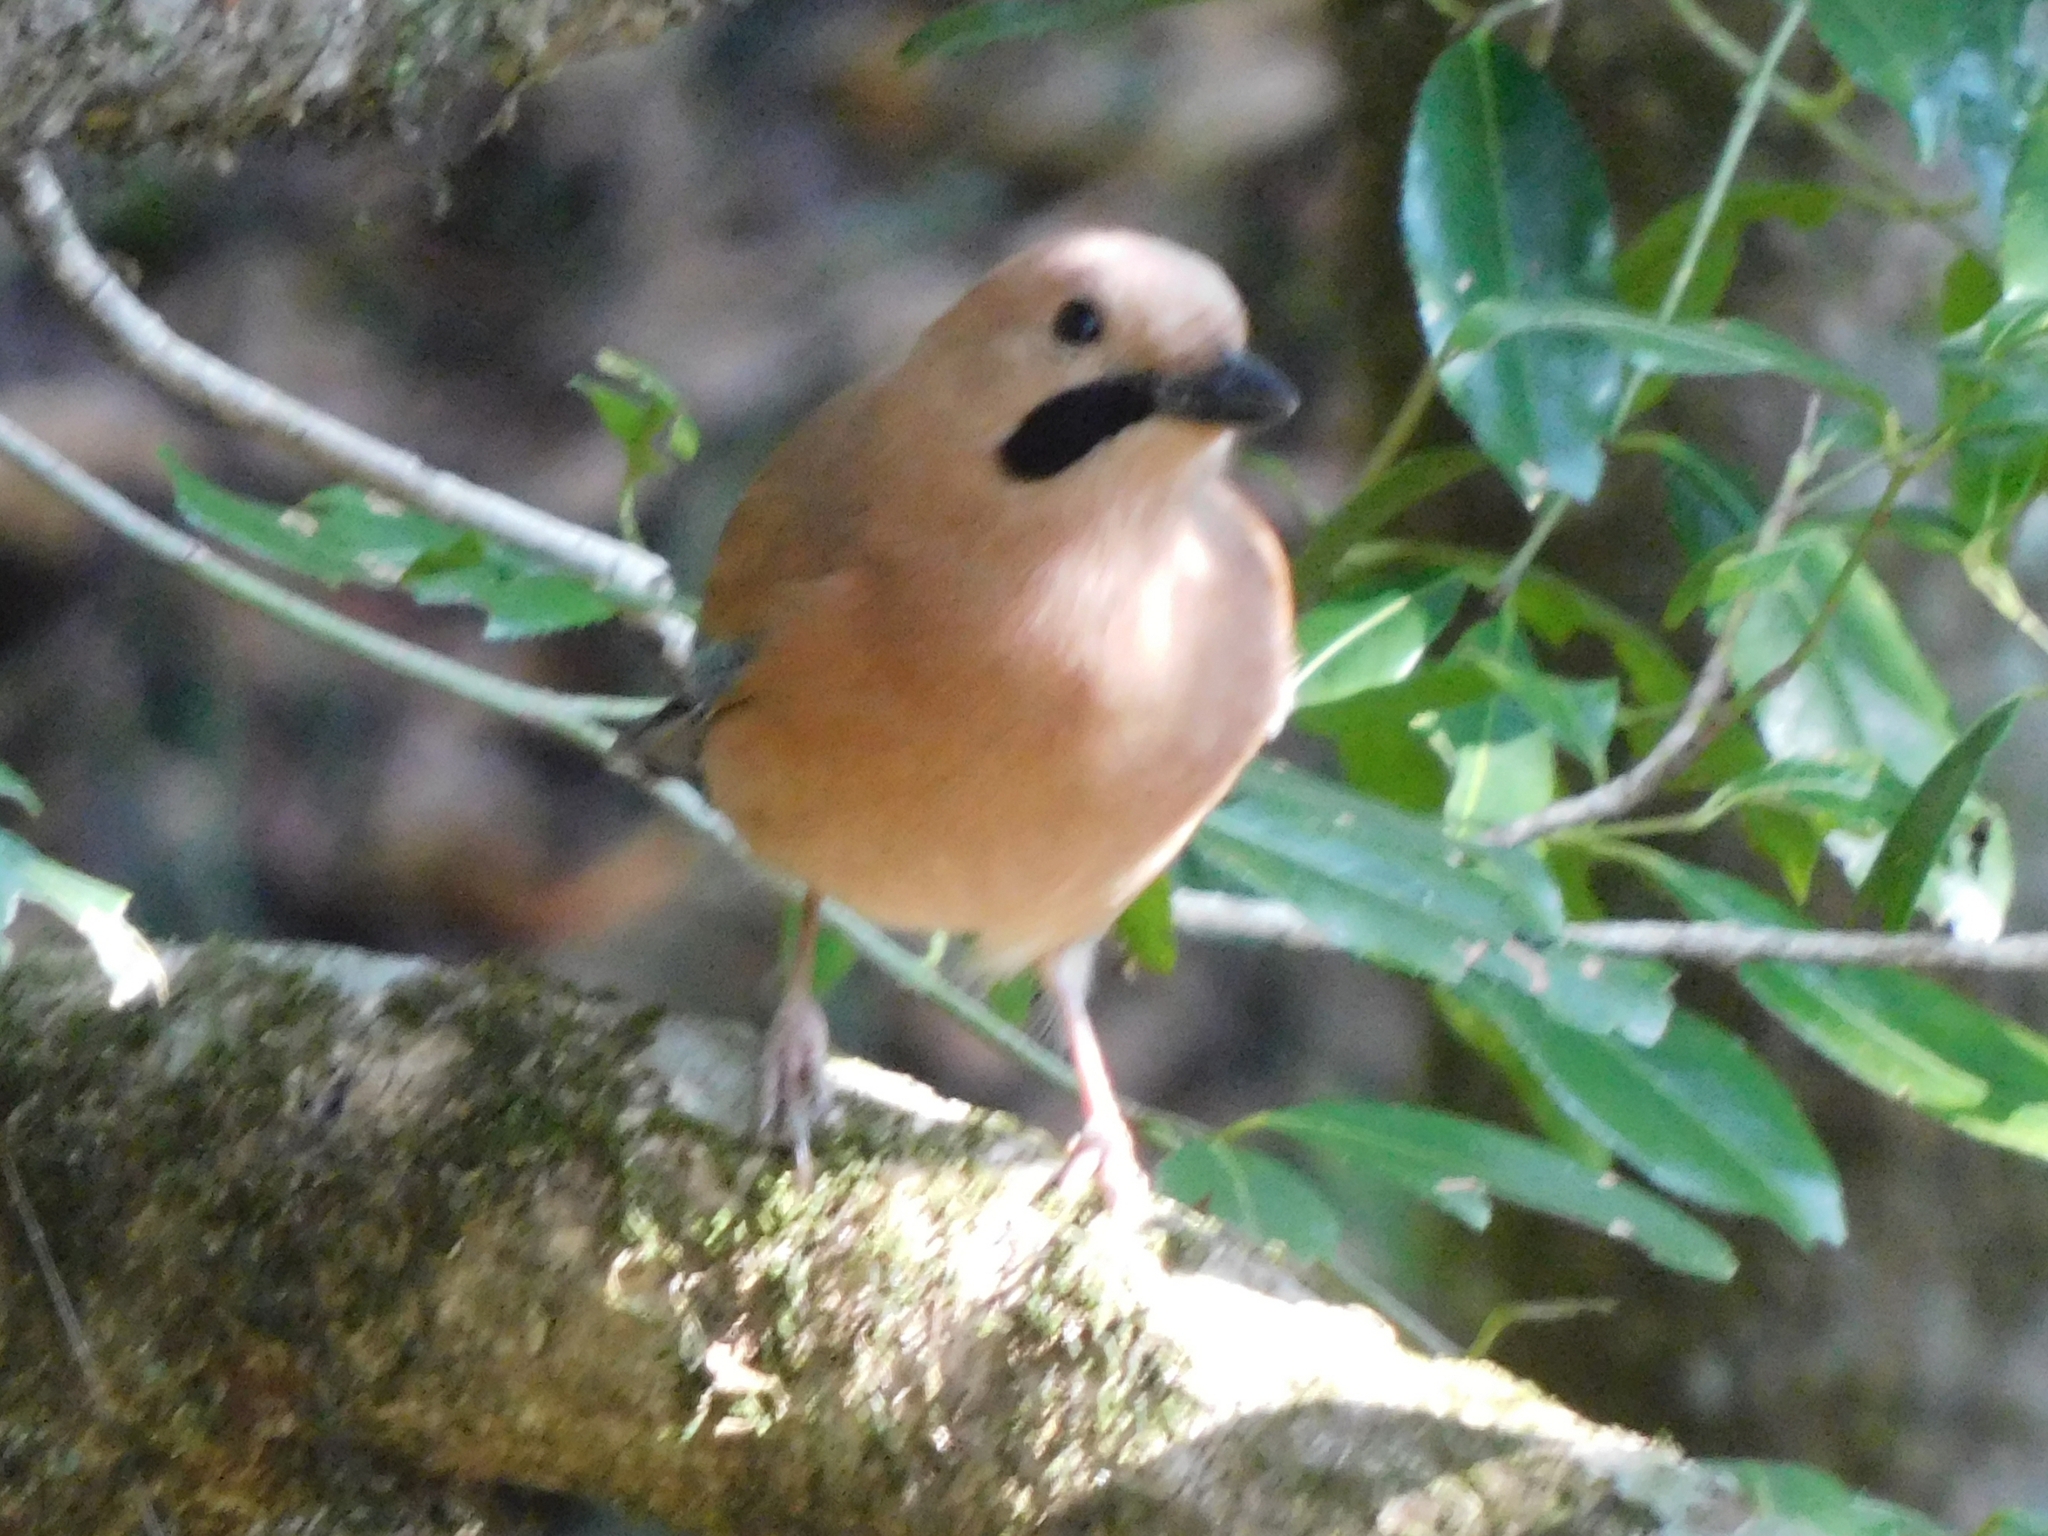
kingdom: Animalia
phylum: Chordata
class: Aves
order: Passeriformes
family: Corvidae
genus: Garrulus
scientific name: Garrulus glandarius
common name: Eurasian jay
